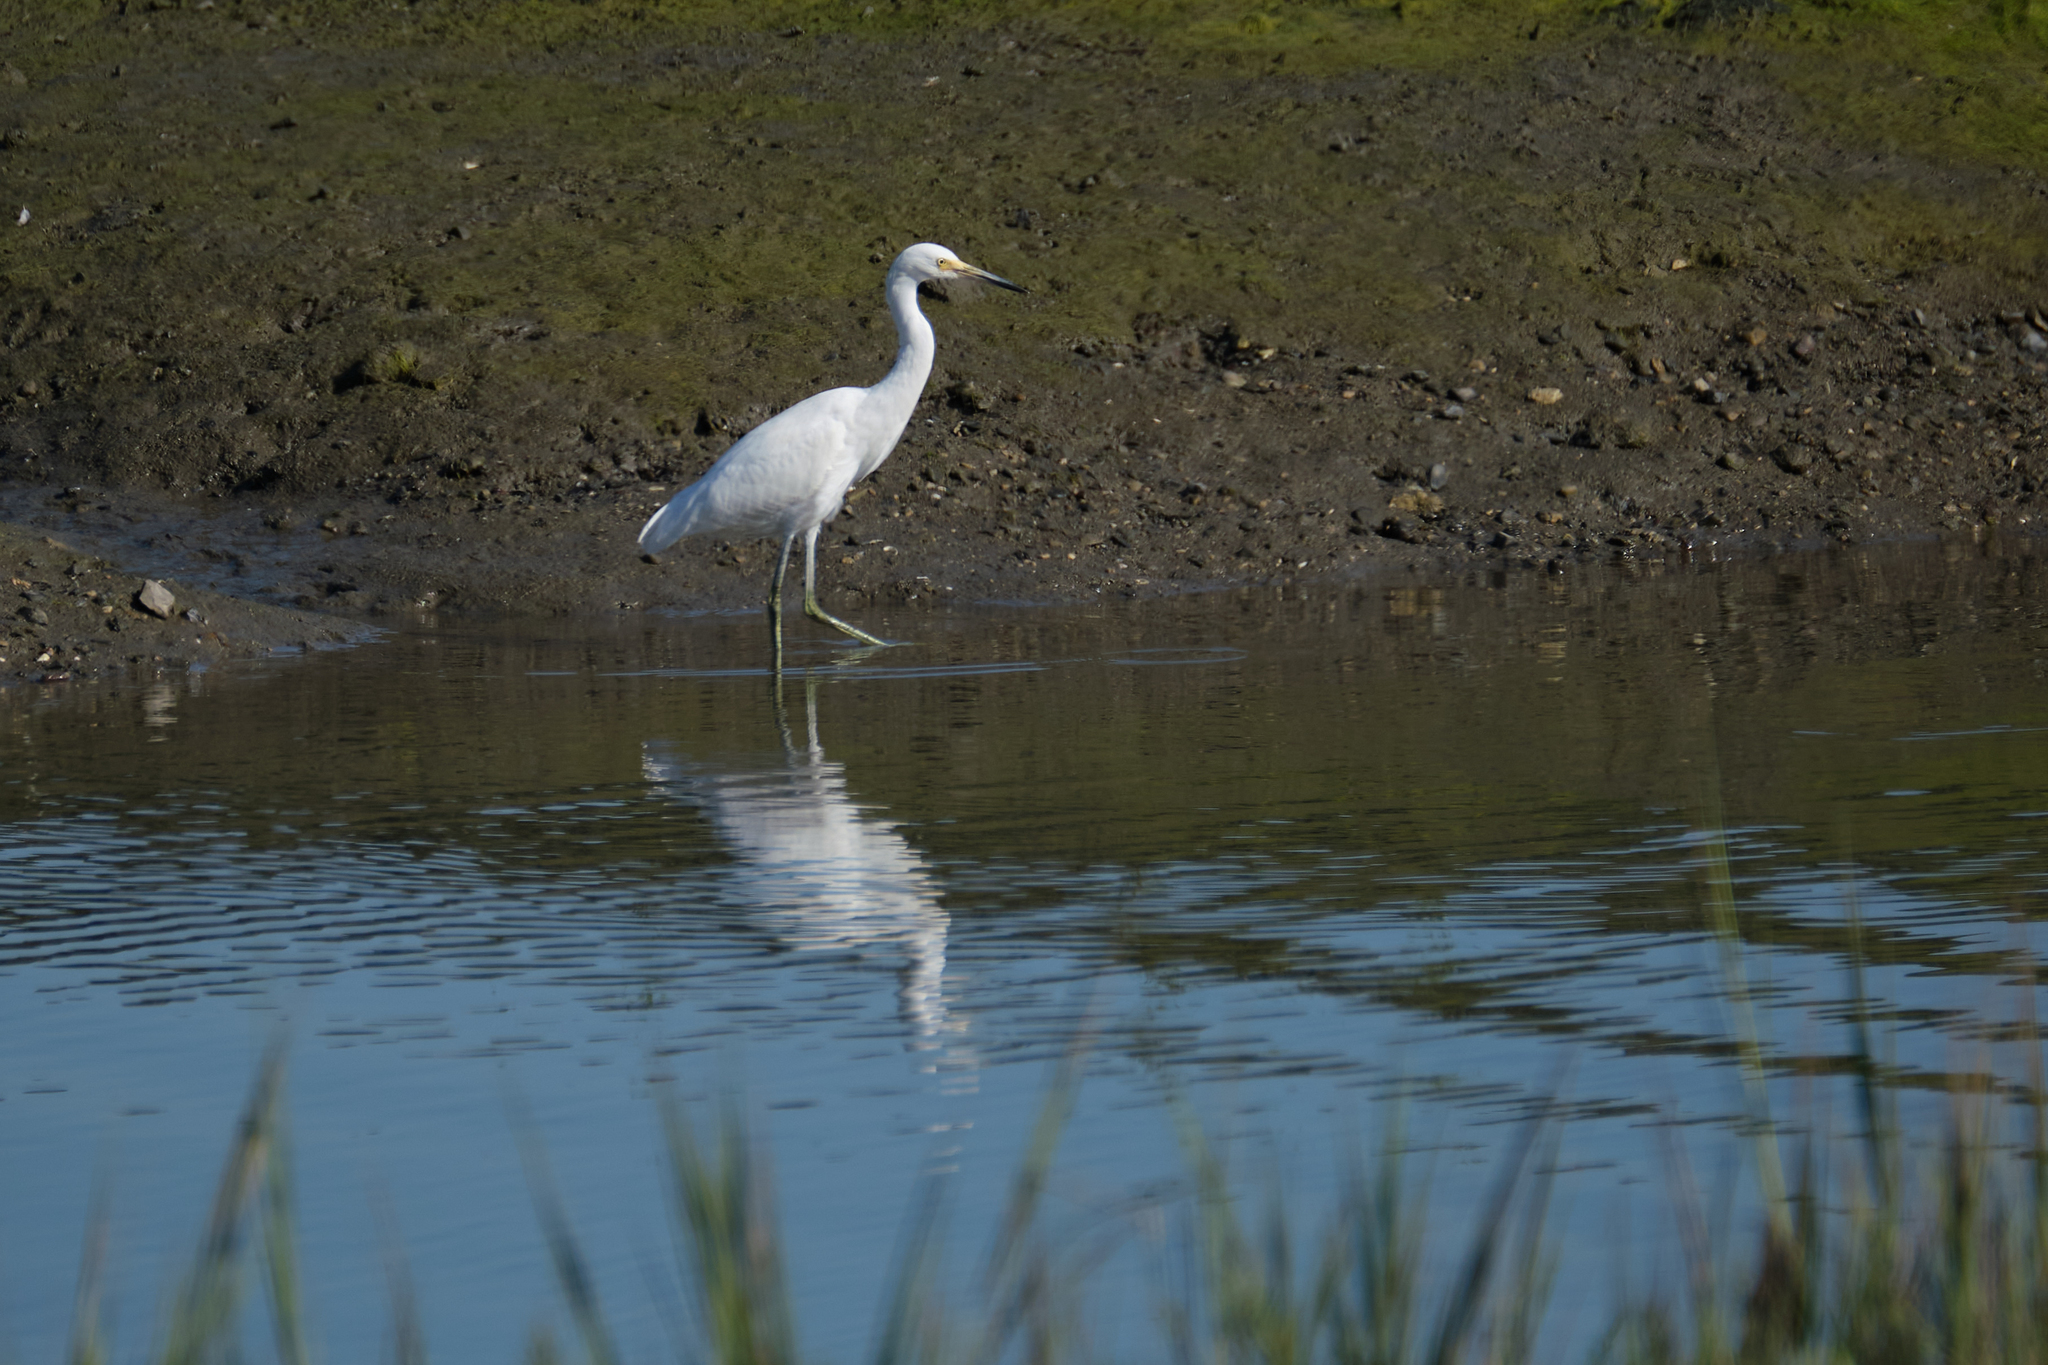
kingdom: Animalia
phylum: Chordata
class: Aves
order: Pelecaniformes
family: Ardeidae
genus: Egretta
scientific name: Egretta thula
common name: Snowy egret
